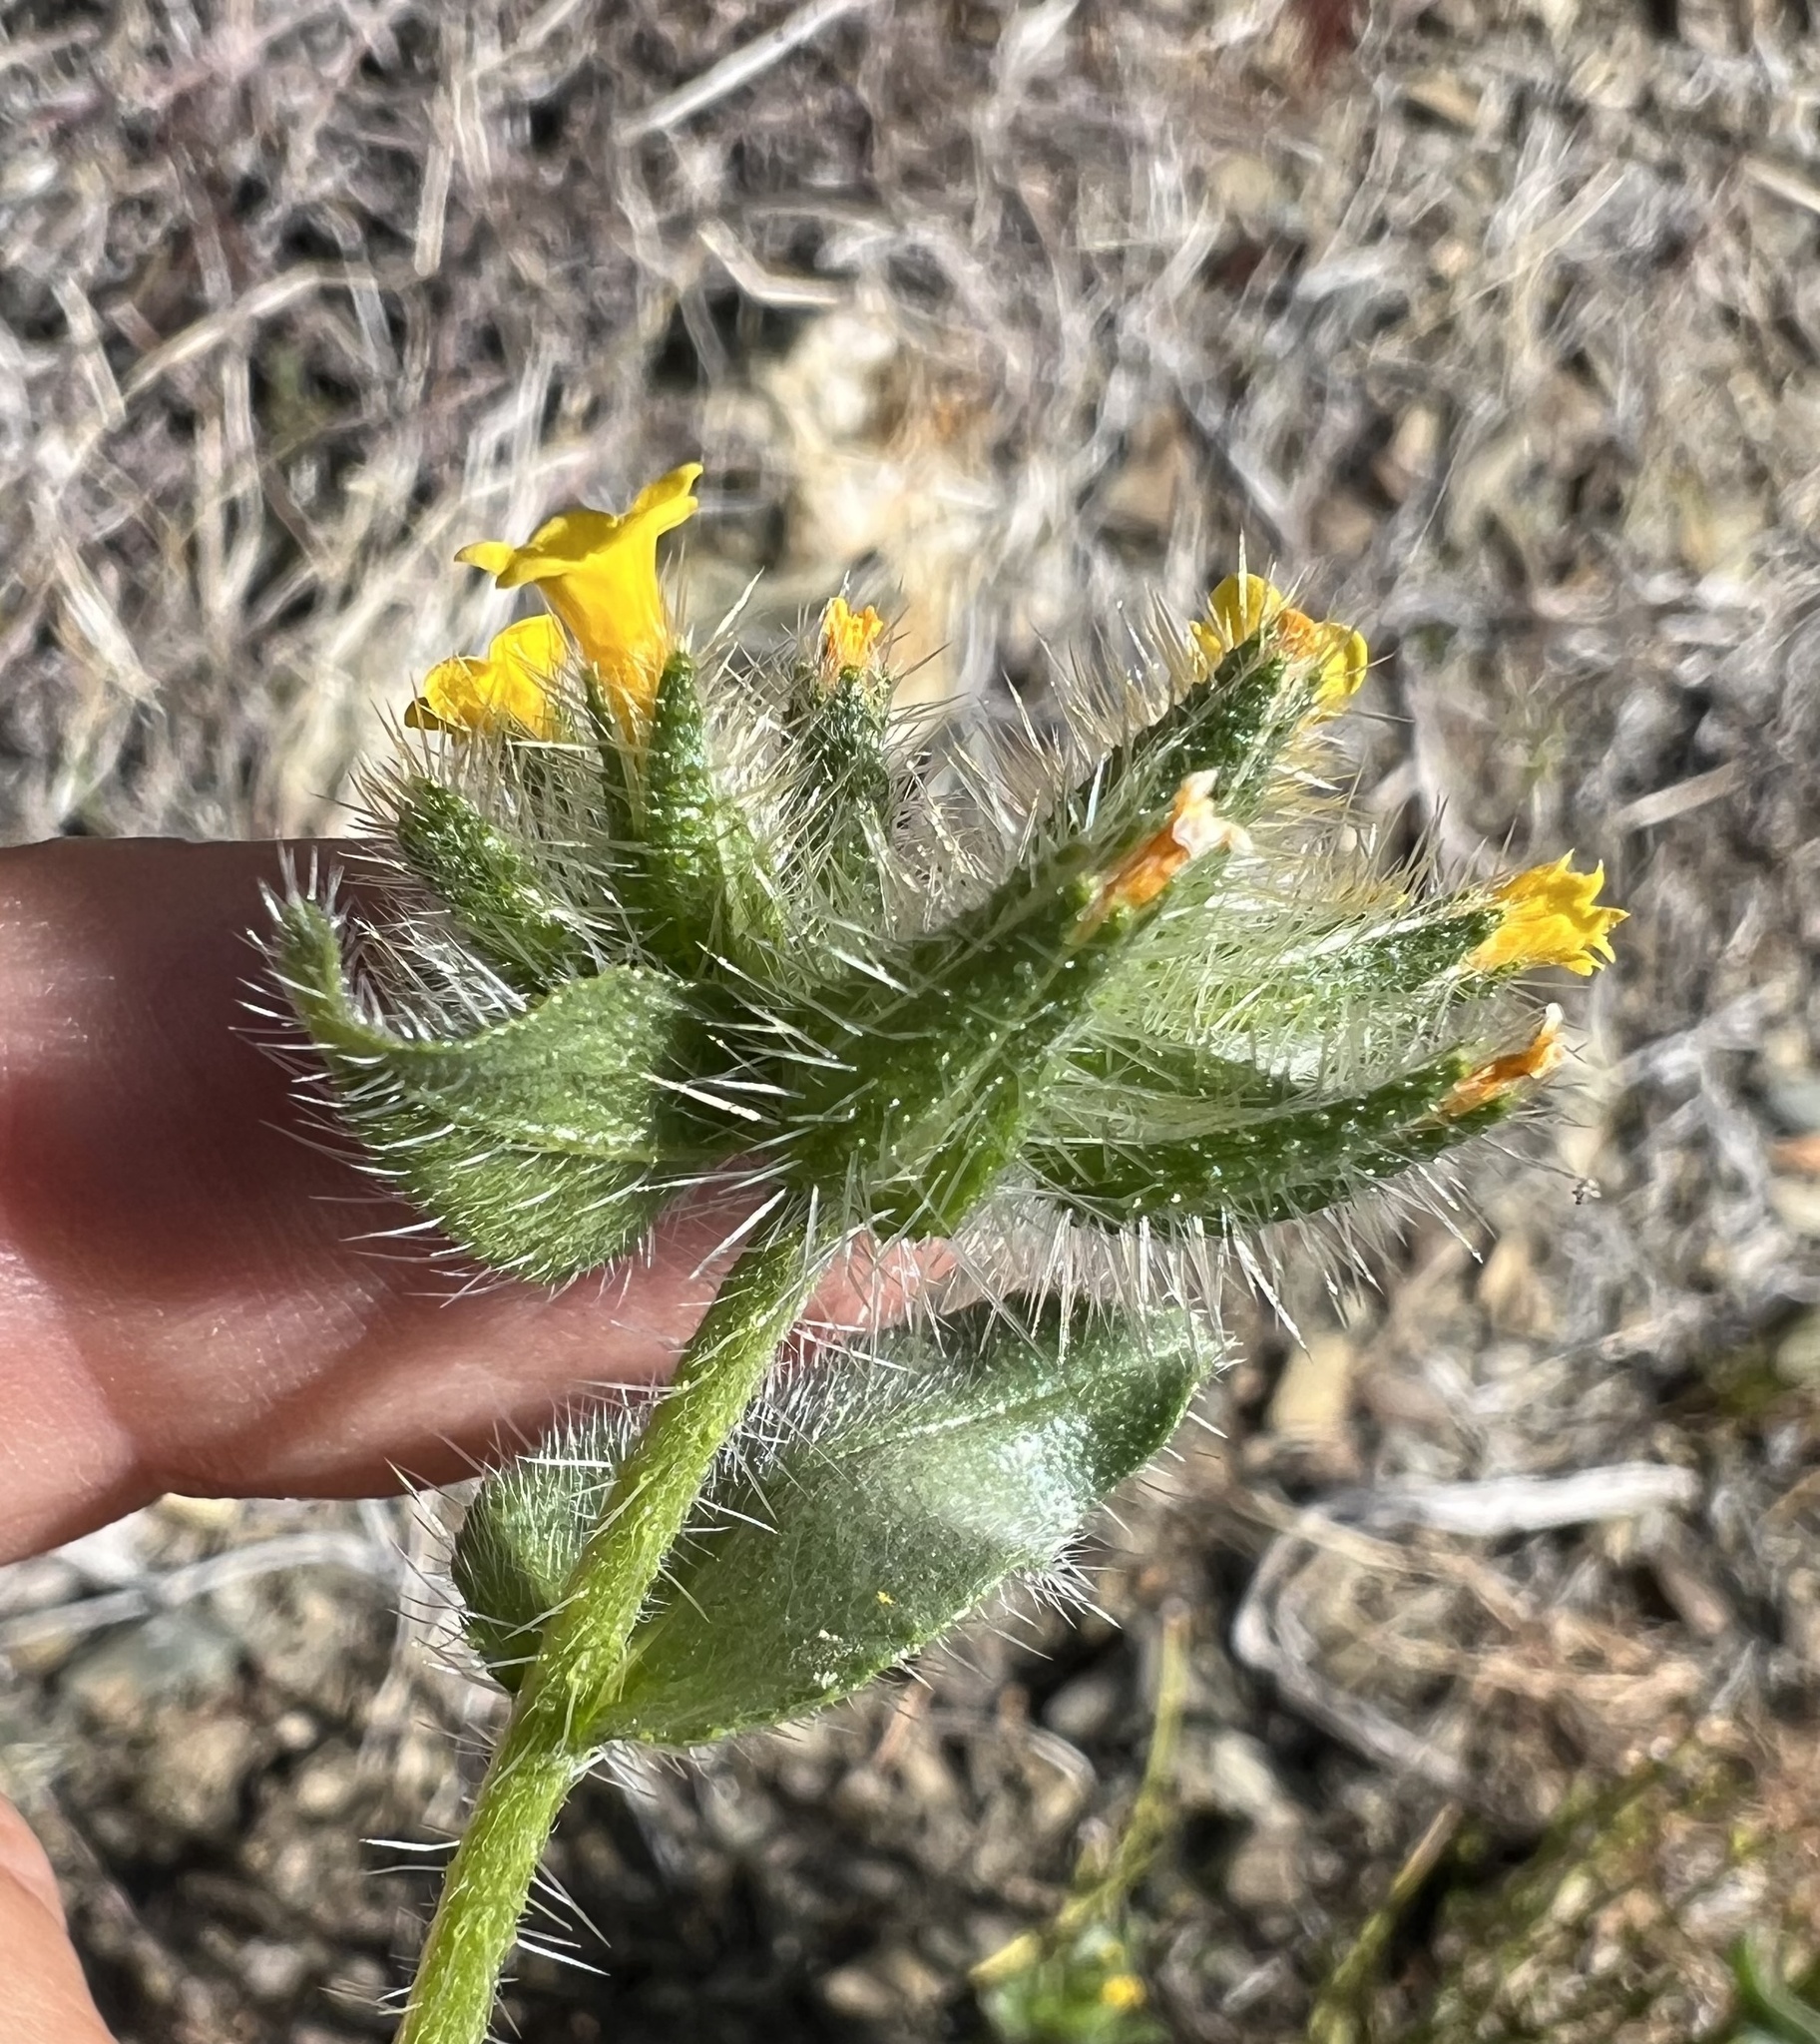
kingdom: Plantae
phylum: Tracheophyta
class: Magnoliopsida
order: Boraginales
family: Boraginaceae
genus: Amsinckia
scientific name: Amsinckia tessellata
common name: Tessellate fiddleneck
